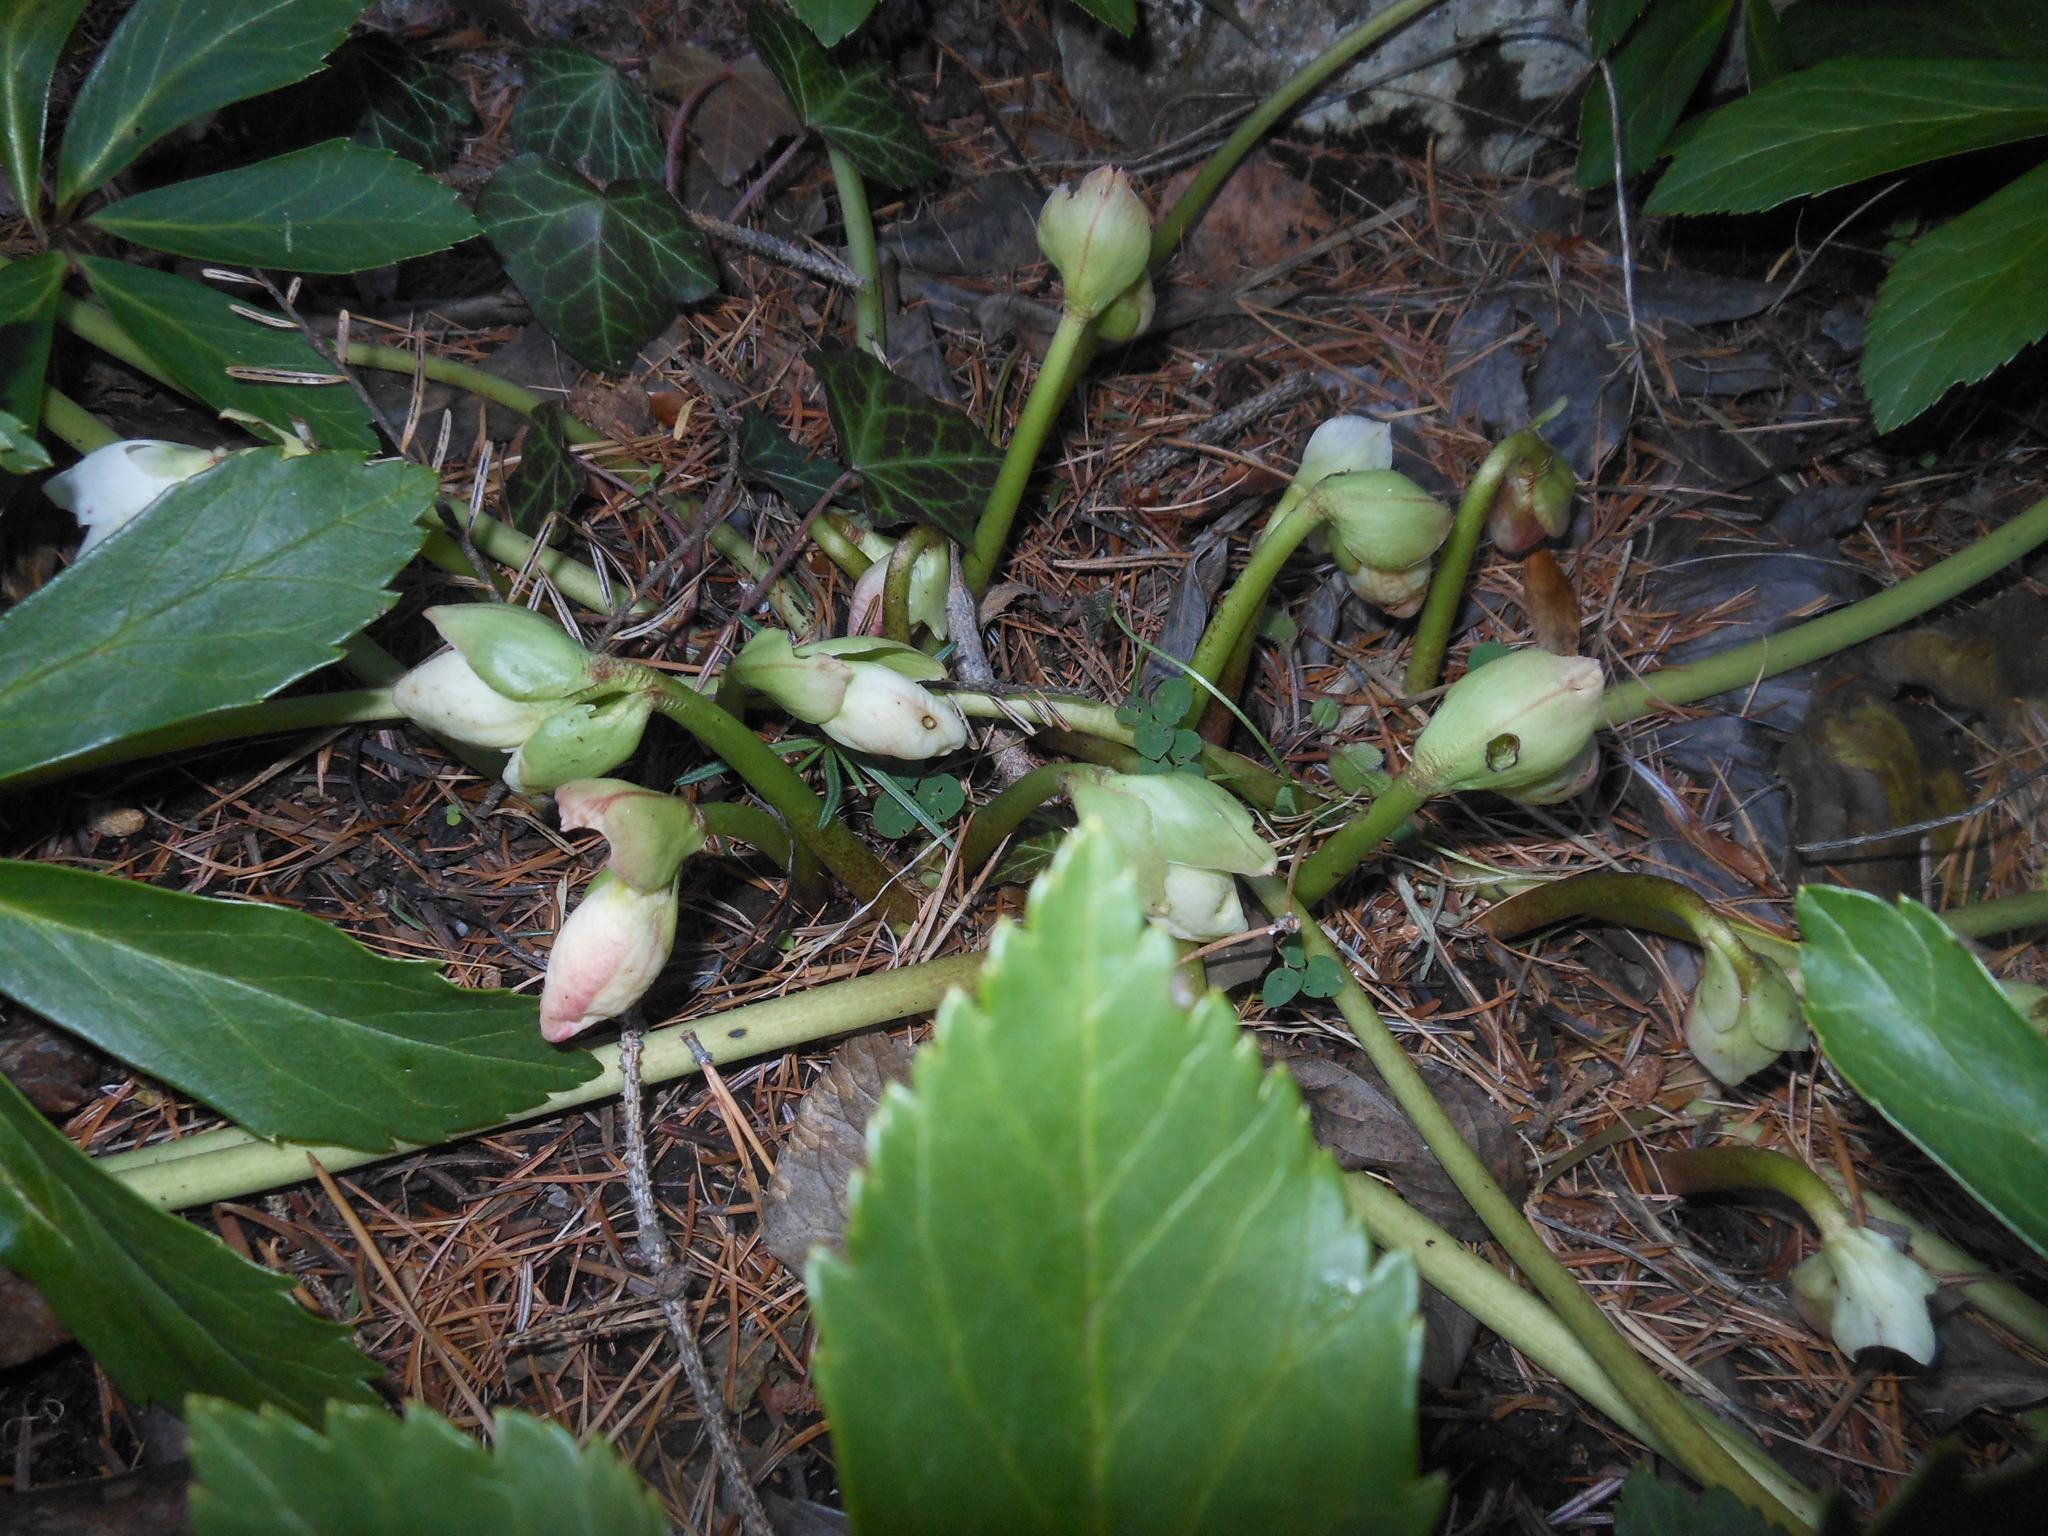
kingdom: Plantae
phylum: Tracheophyta
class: Magnoliopsida
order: Ranunculales
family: Ranunculaceae
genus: Helleborus
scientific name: Helleborus niger
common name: Black hellebore
